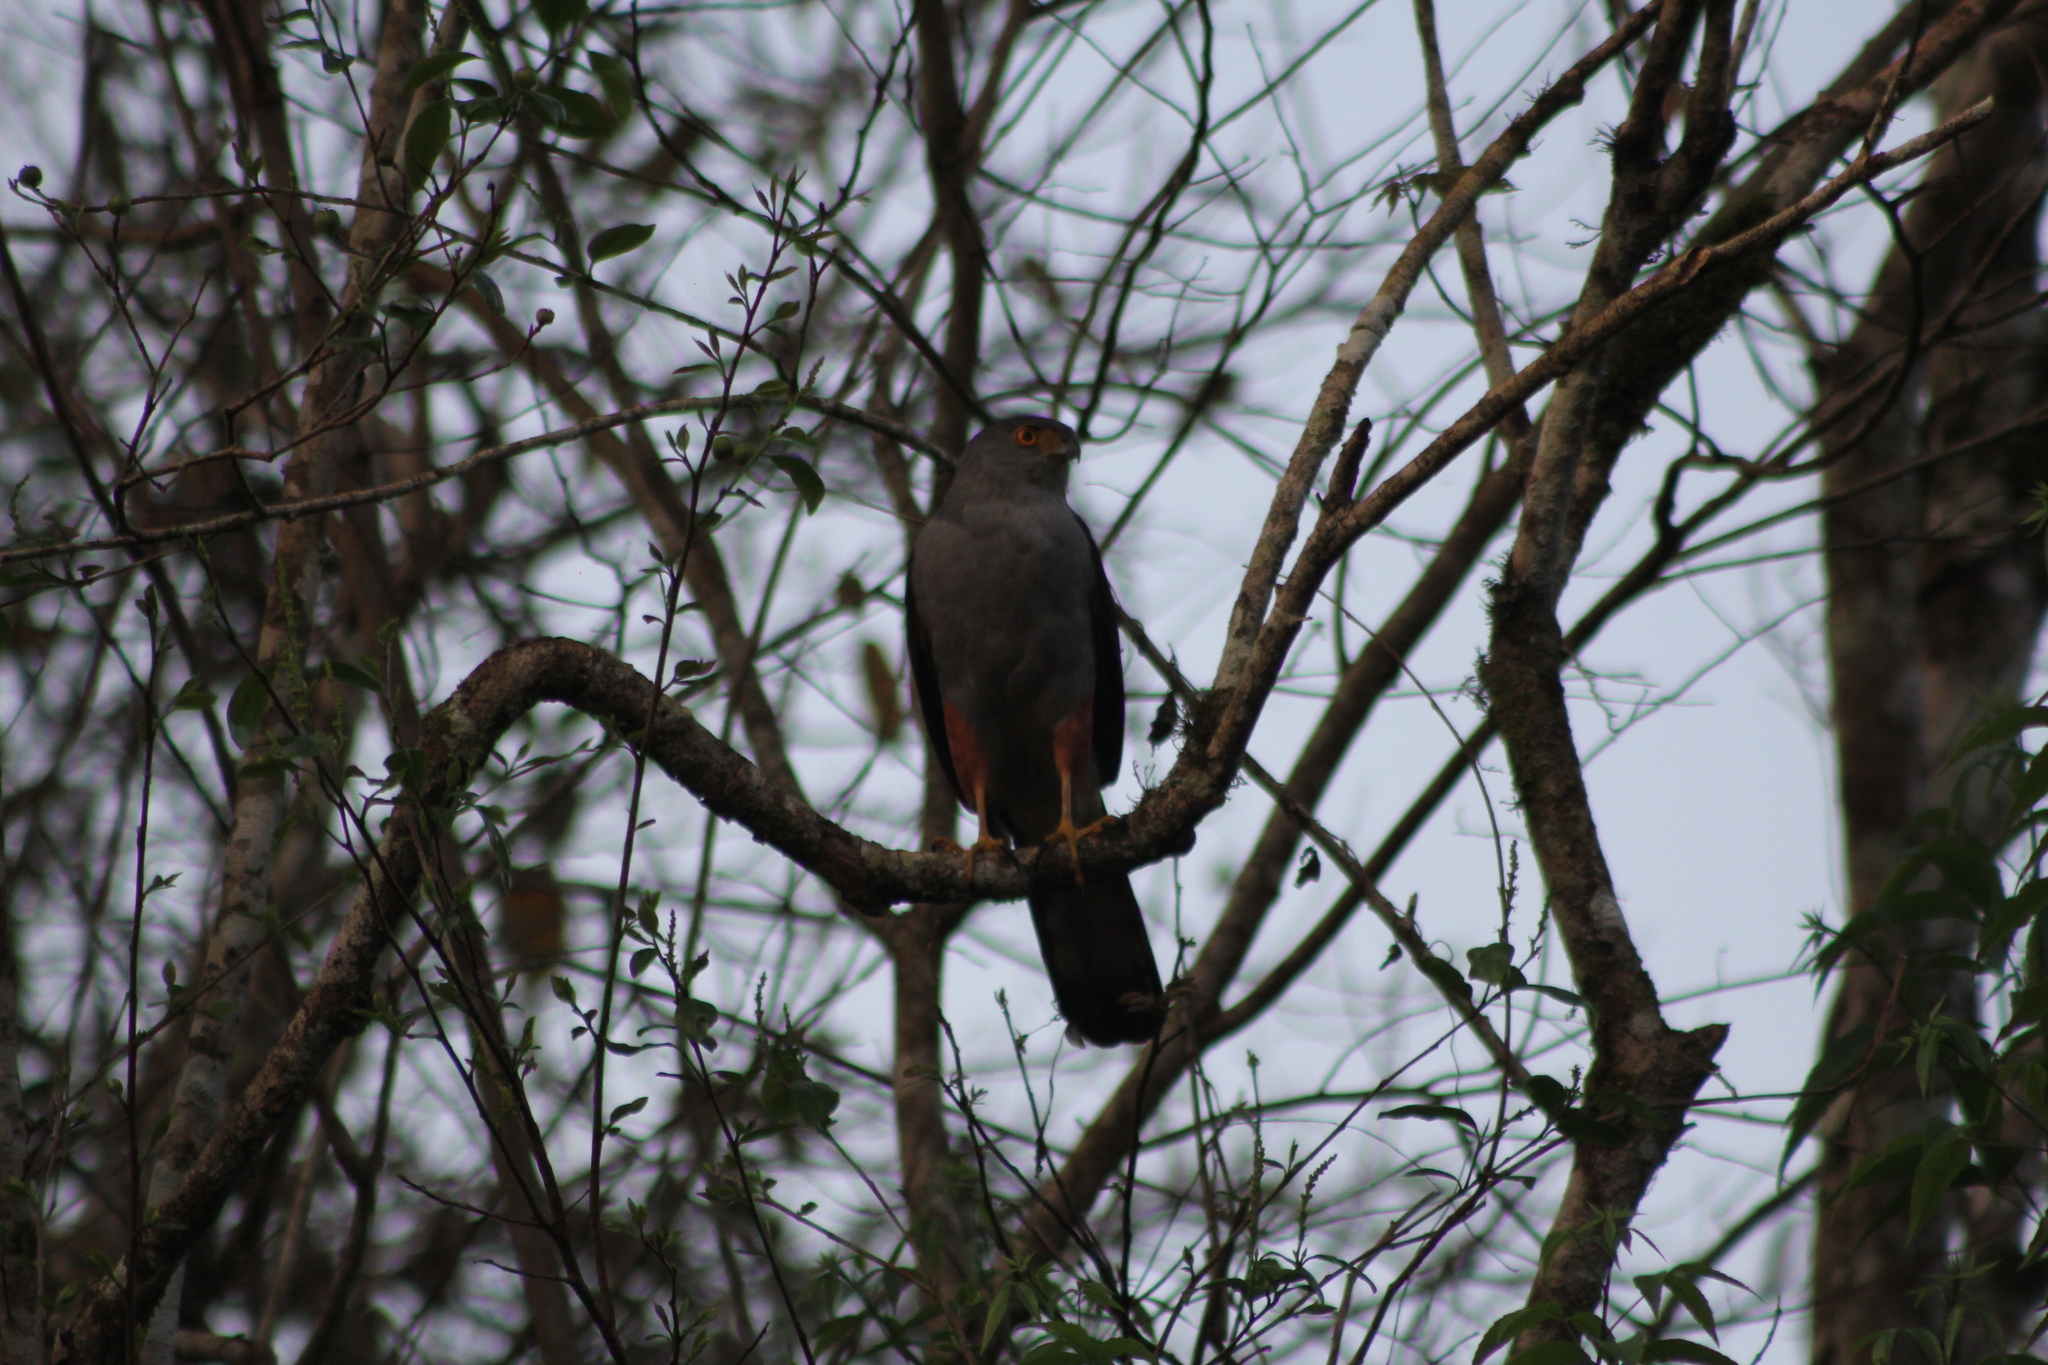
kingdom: Animalia
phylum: Chordata
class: Aves
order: Accipitriformes
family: Accipitridae
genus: Accipiter
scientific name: Accipiter bicolor
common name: Bicolored hawk
